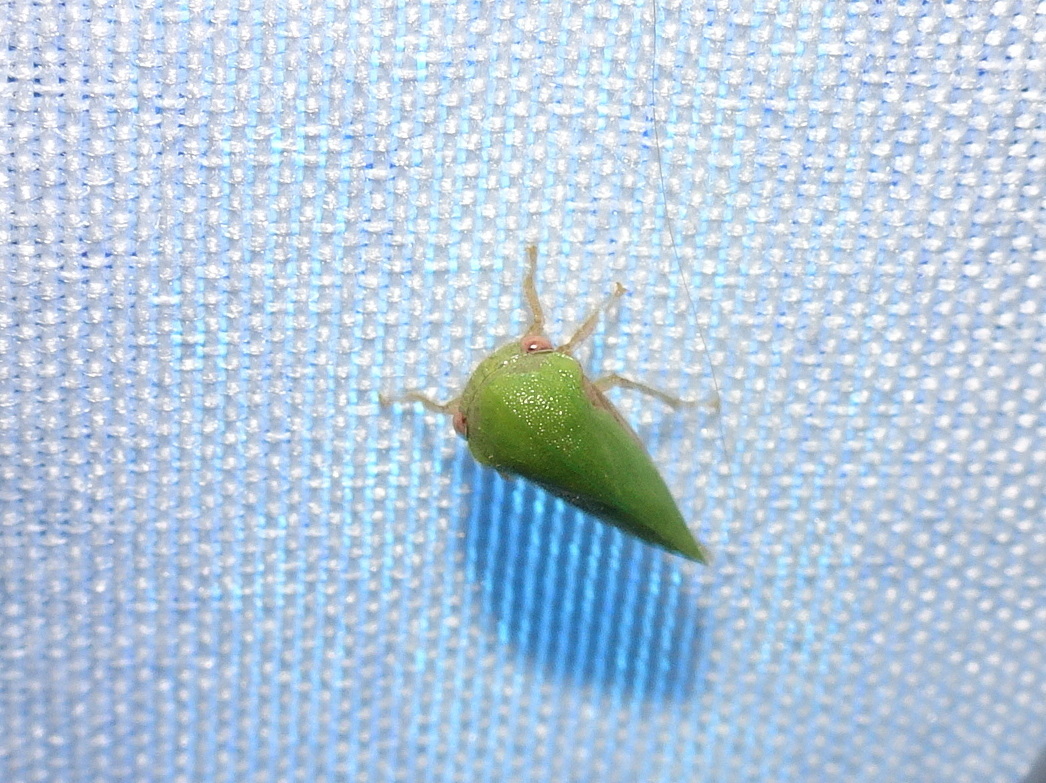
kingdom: Animalia
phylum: Arthropoda
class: Insecta
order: Hemiptera
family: Membracidae
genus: Ophiderma
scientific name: Ophiderma evelyna
